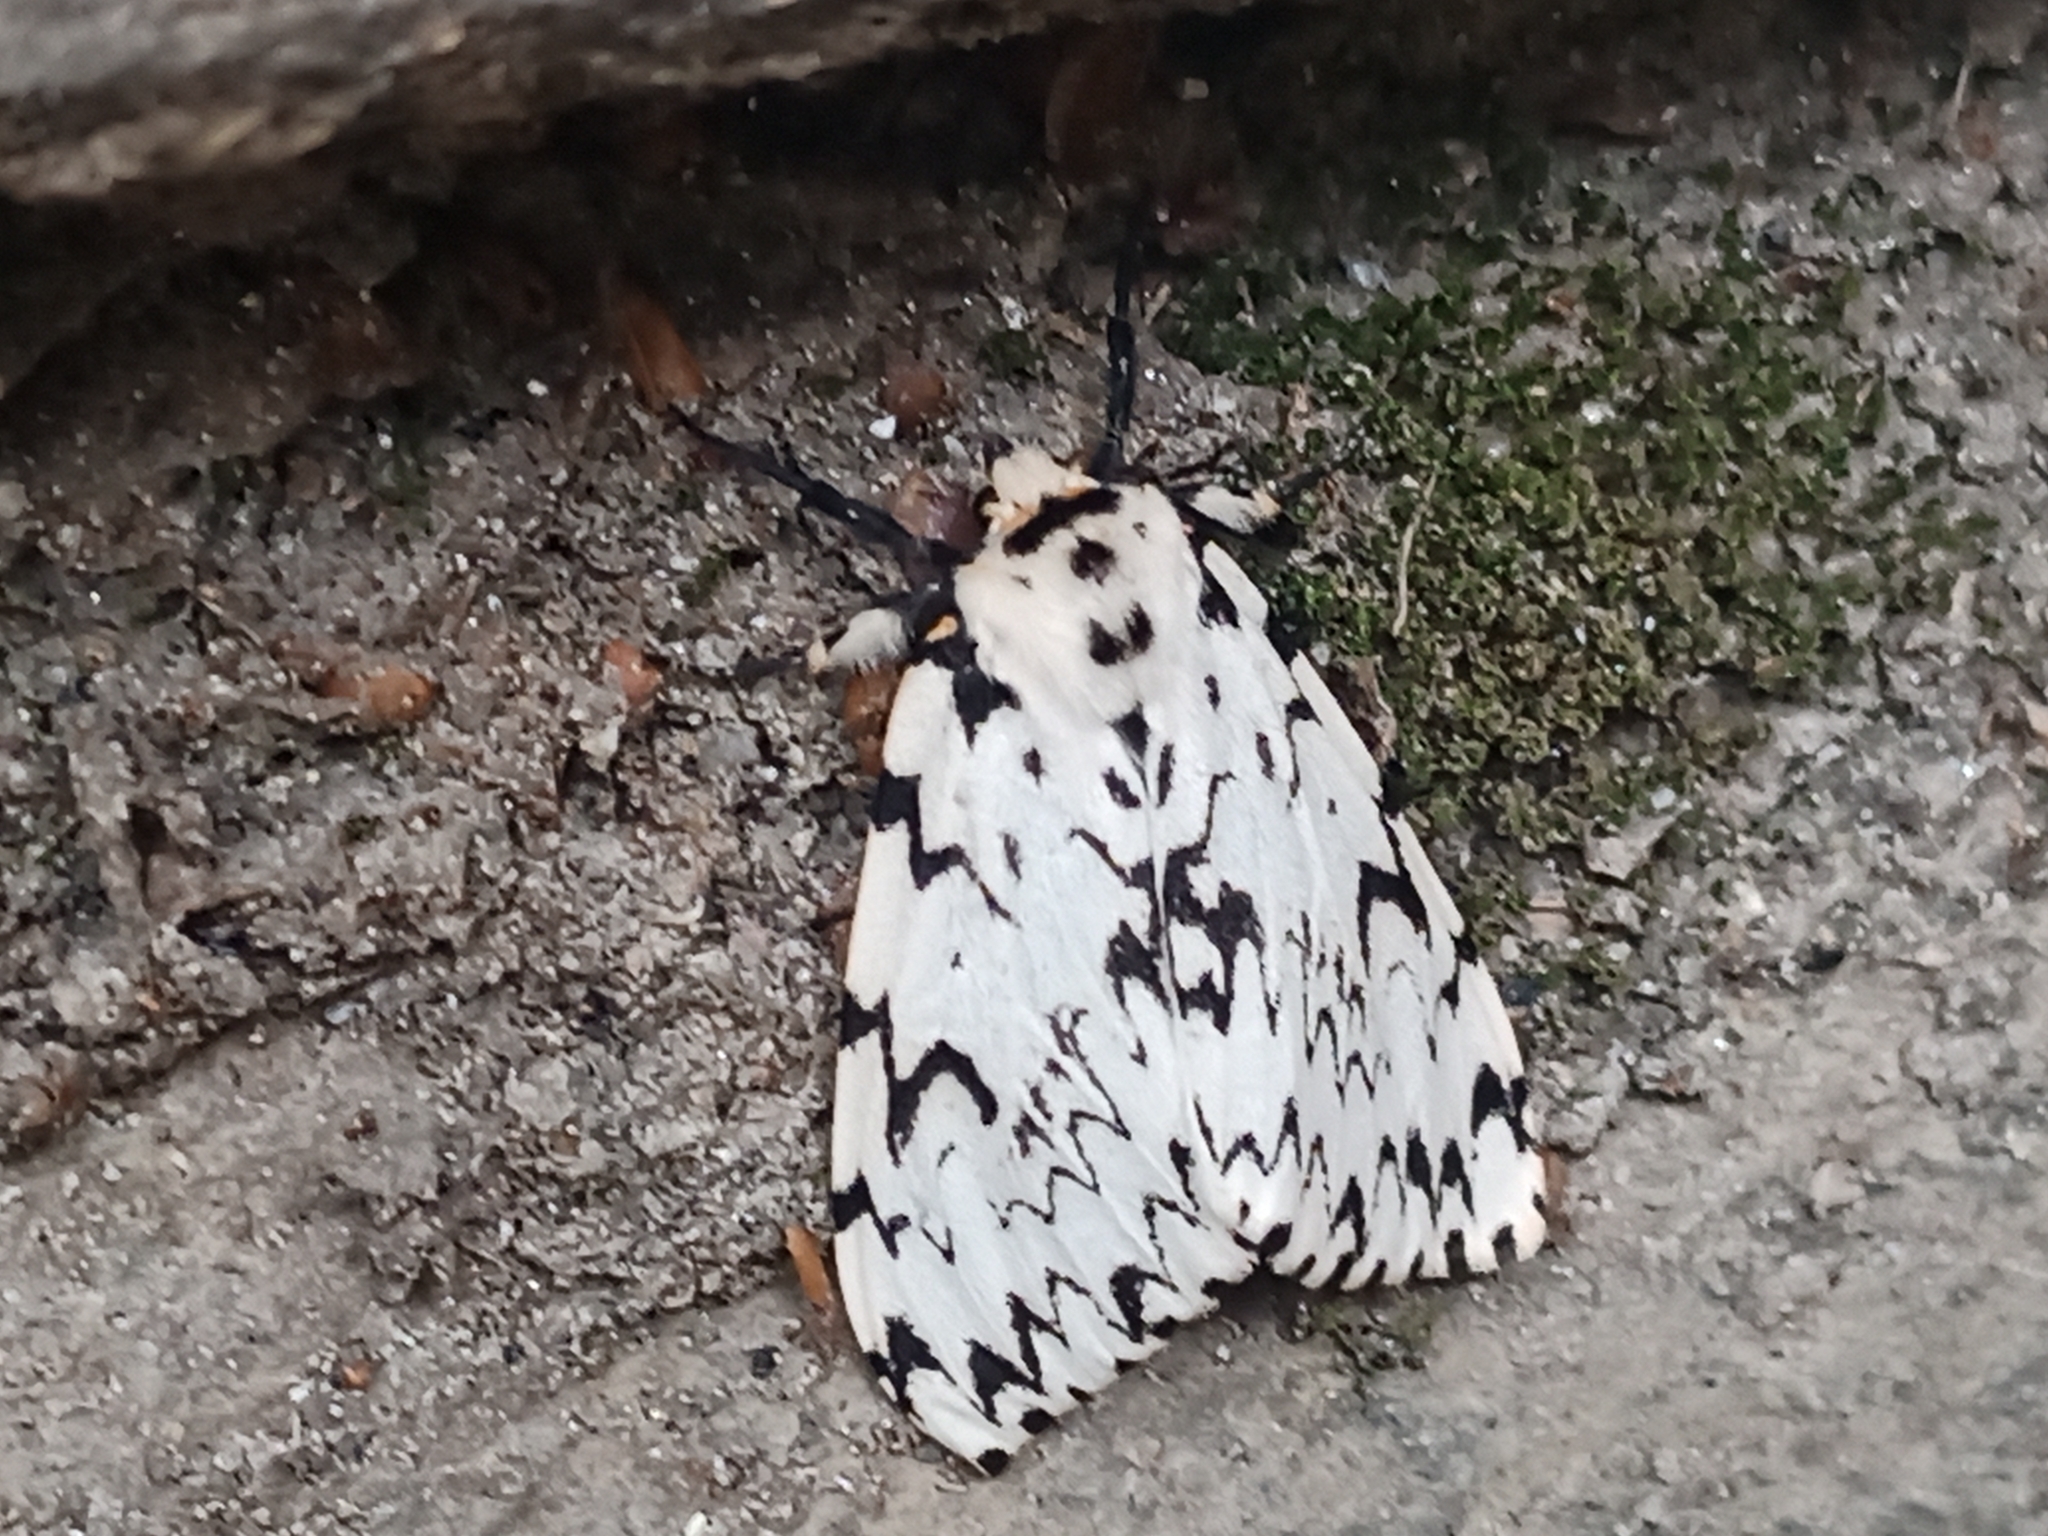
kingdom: Animalia
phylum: Arthropoda
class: Insecta
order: Lepidoptera
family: Erebidae
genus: Lymantria
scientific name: Lymantria monacha
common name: Black arches
